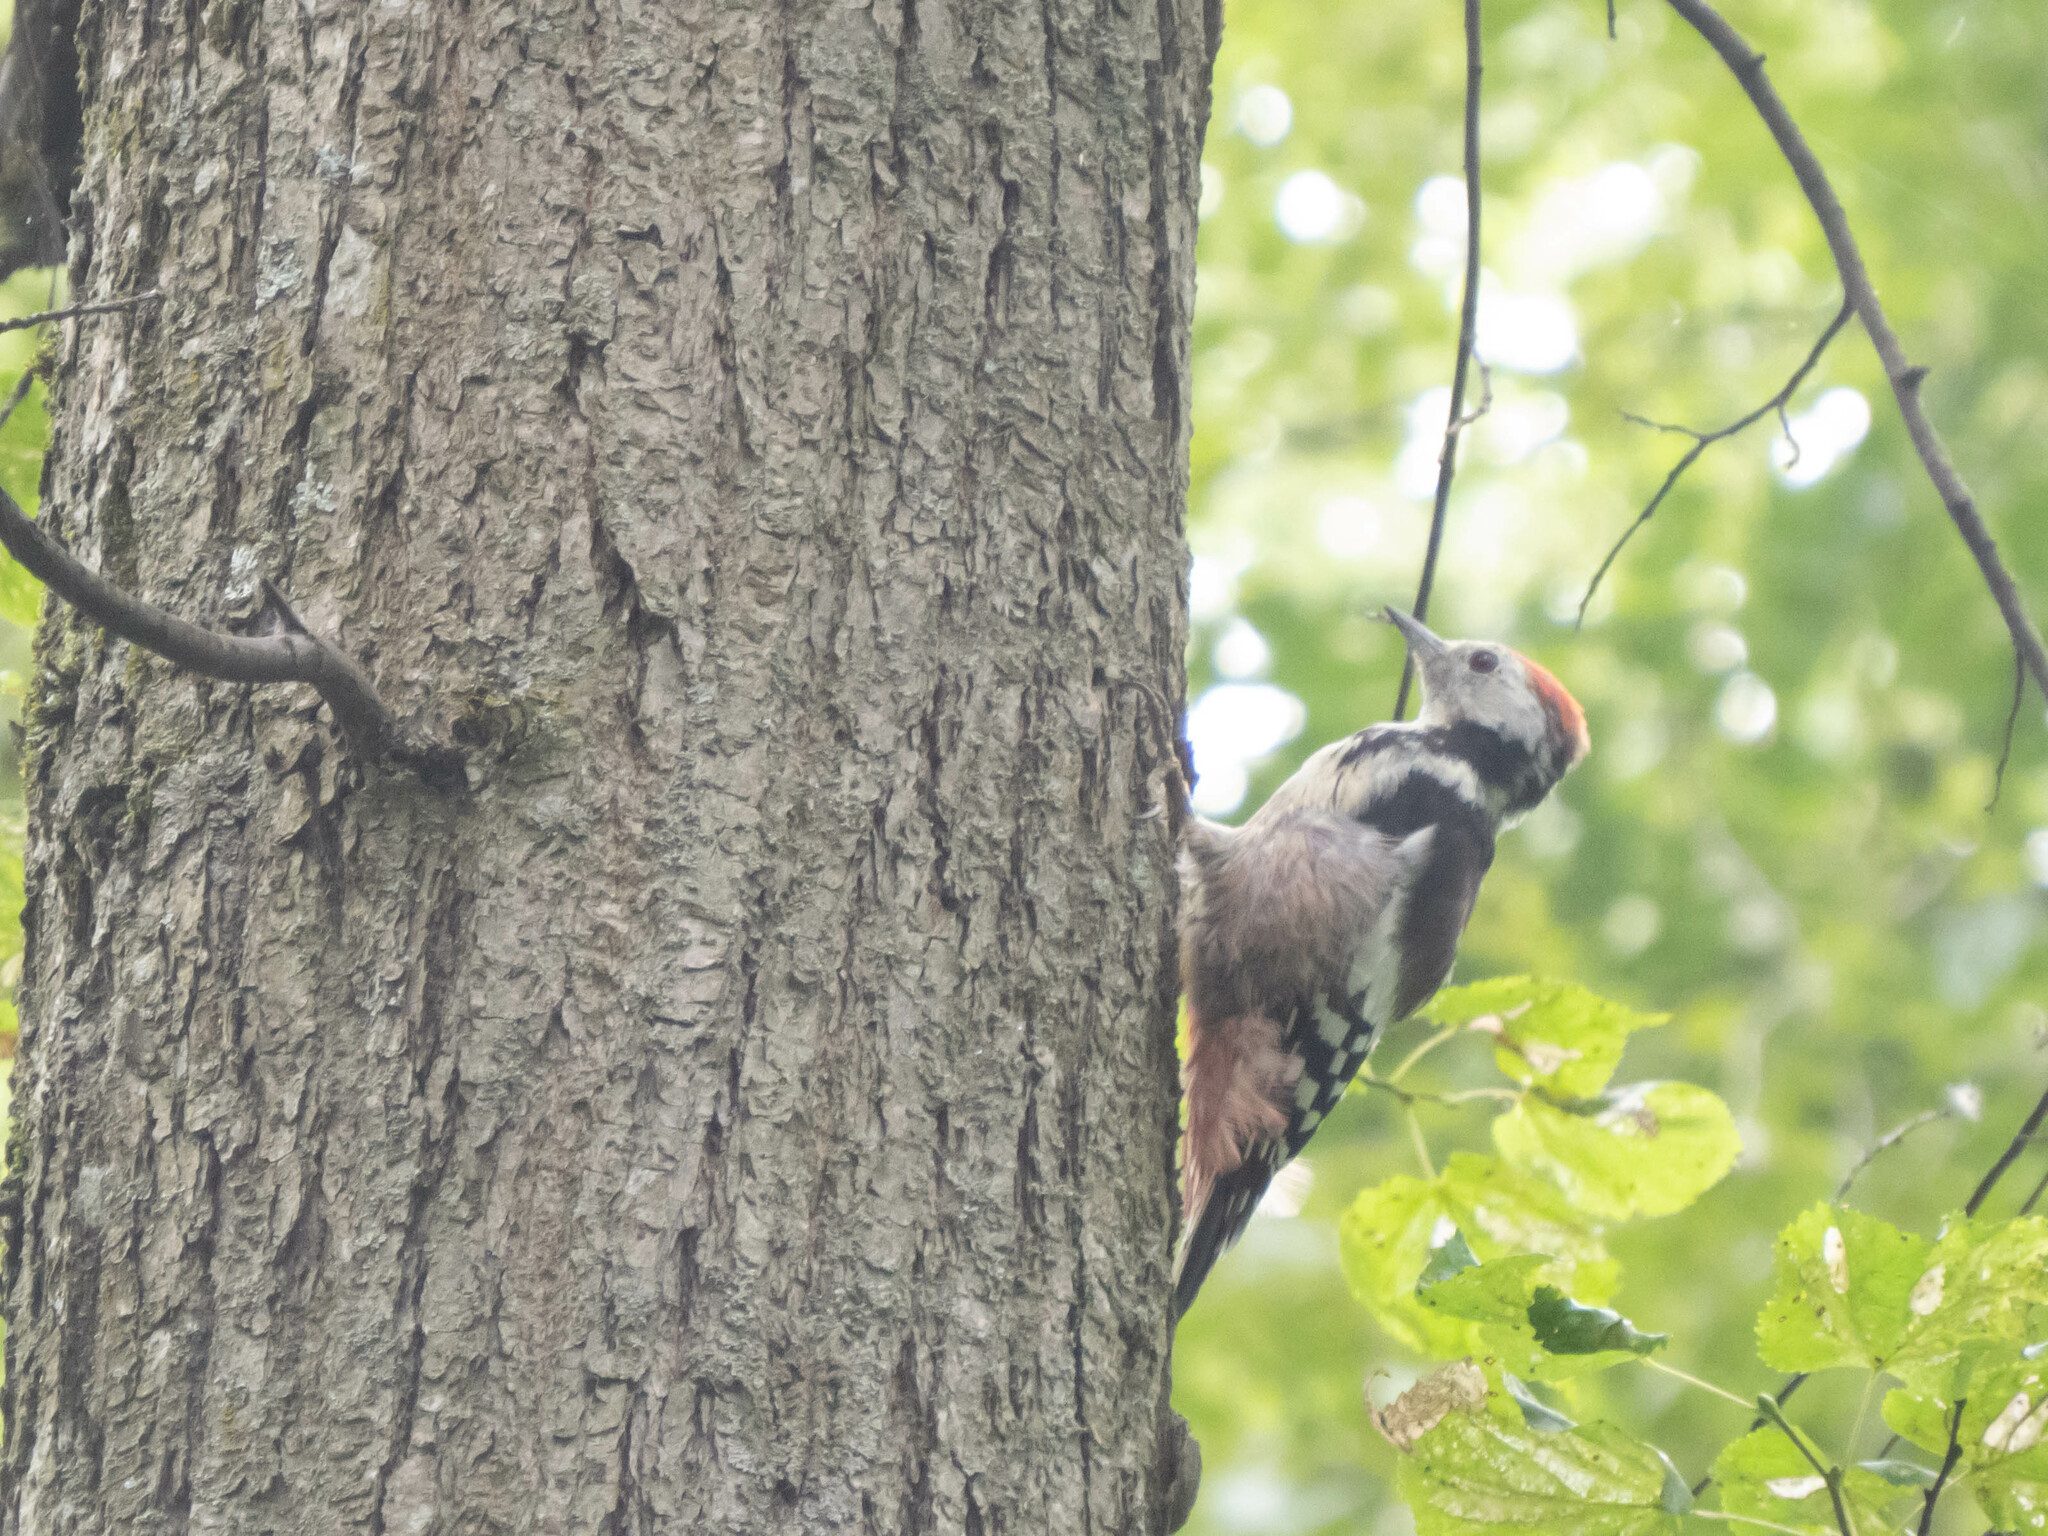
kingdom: Animalia
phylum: Chordata
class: Aves
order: Piciformes
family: Picidae
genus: Dendrocoptes
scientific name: Dendrocoptes medius
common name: Middle spotted woodpecker
